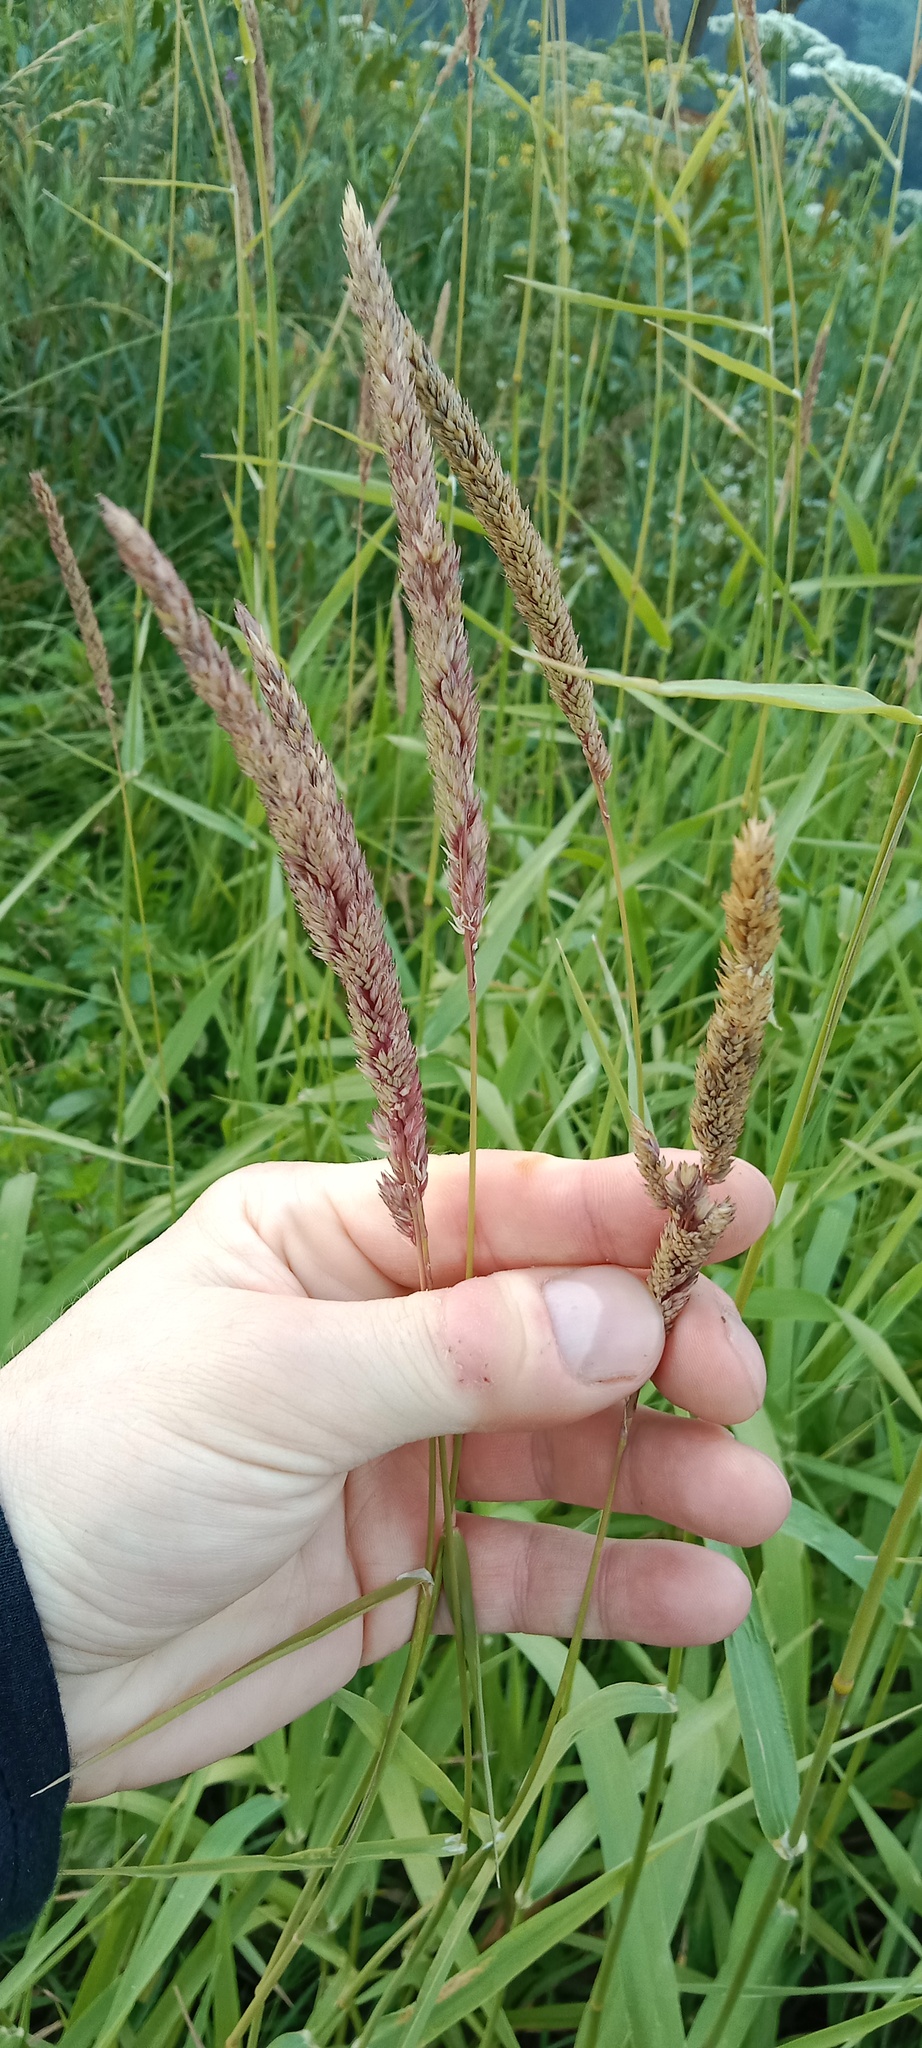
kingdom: Plantae
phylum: Tracheophyta
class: Liliopsida
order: Poales
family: Poaceae
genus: Phalaris
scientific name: Phalaris arundinacea
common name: Reed canary-grass
